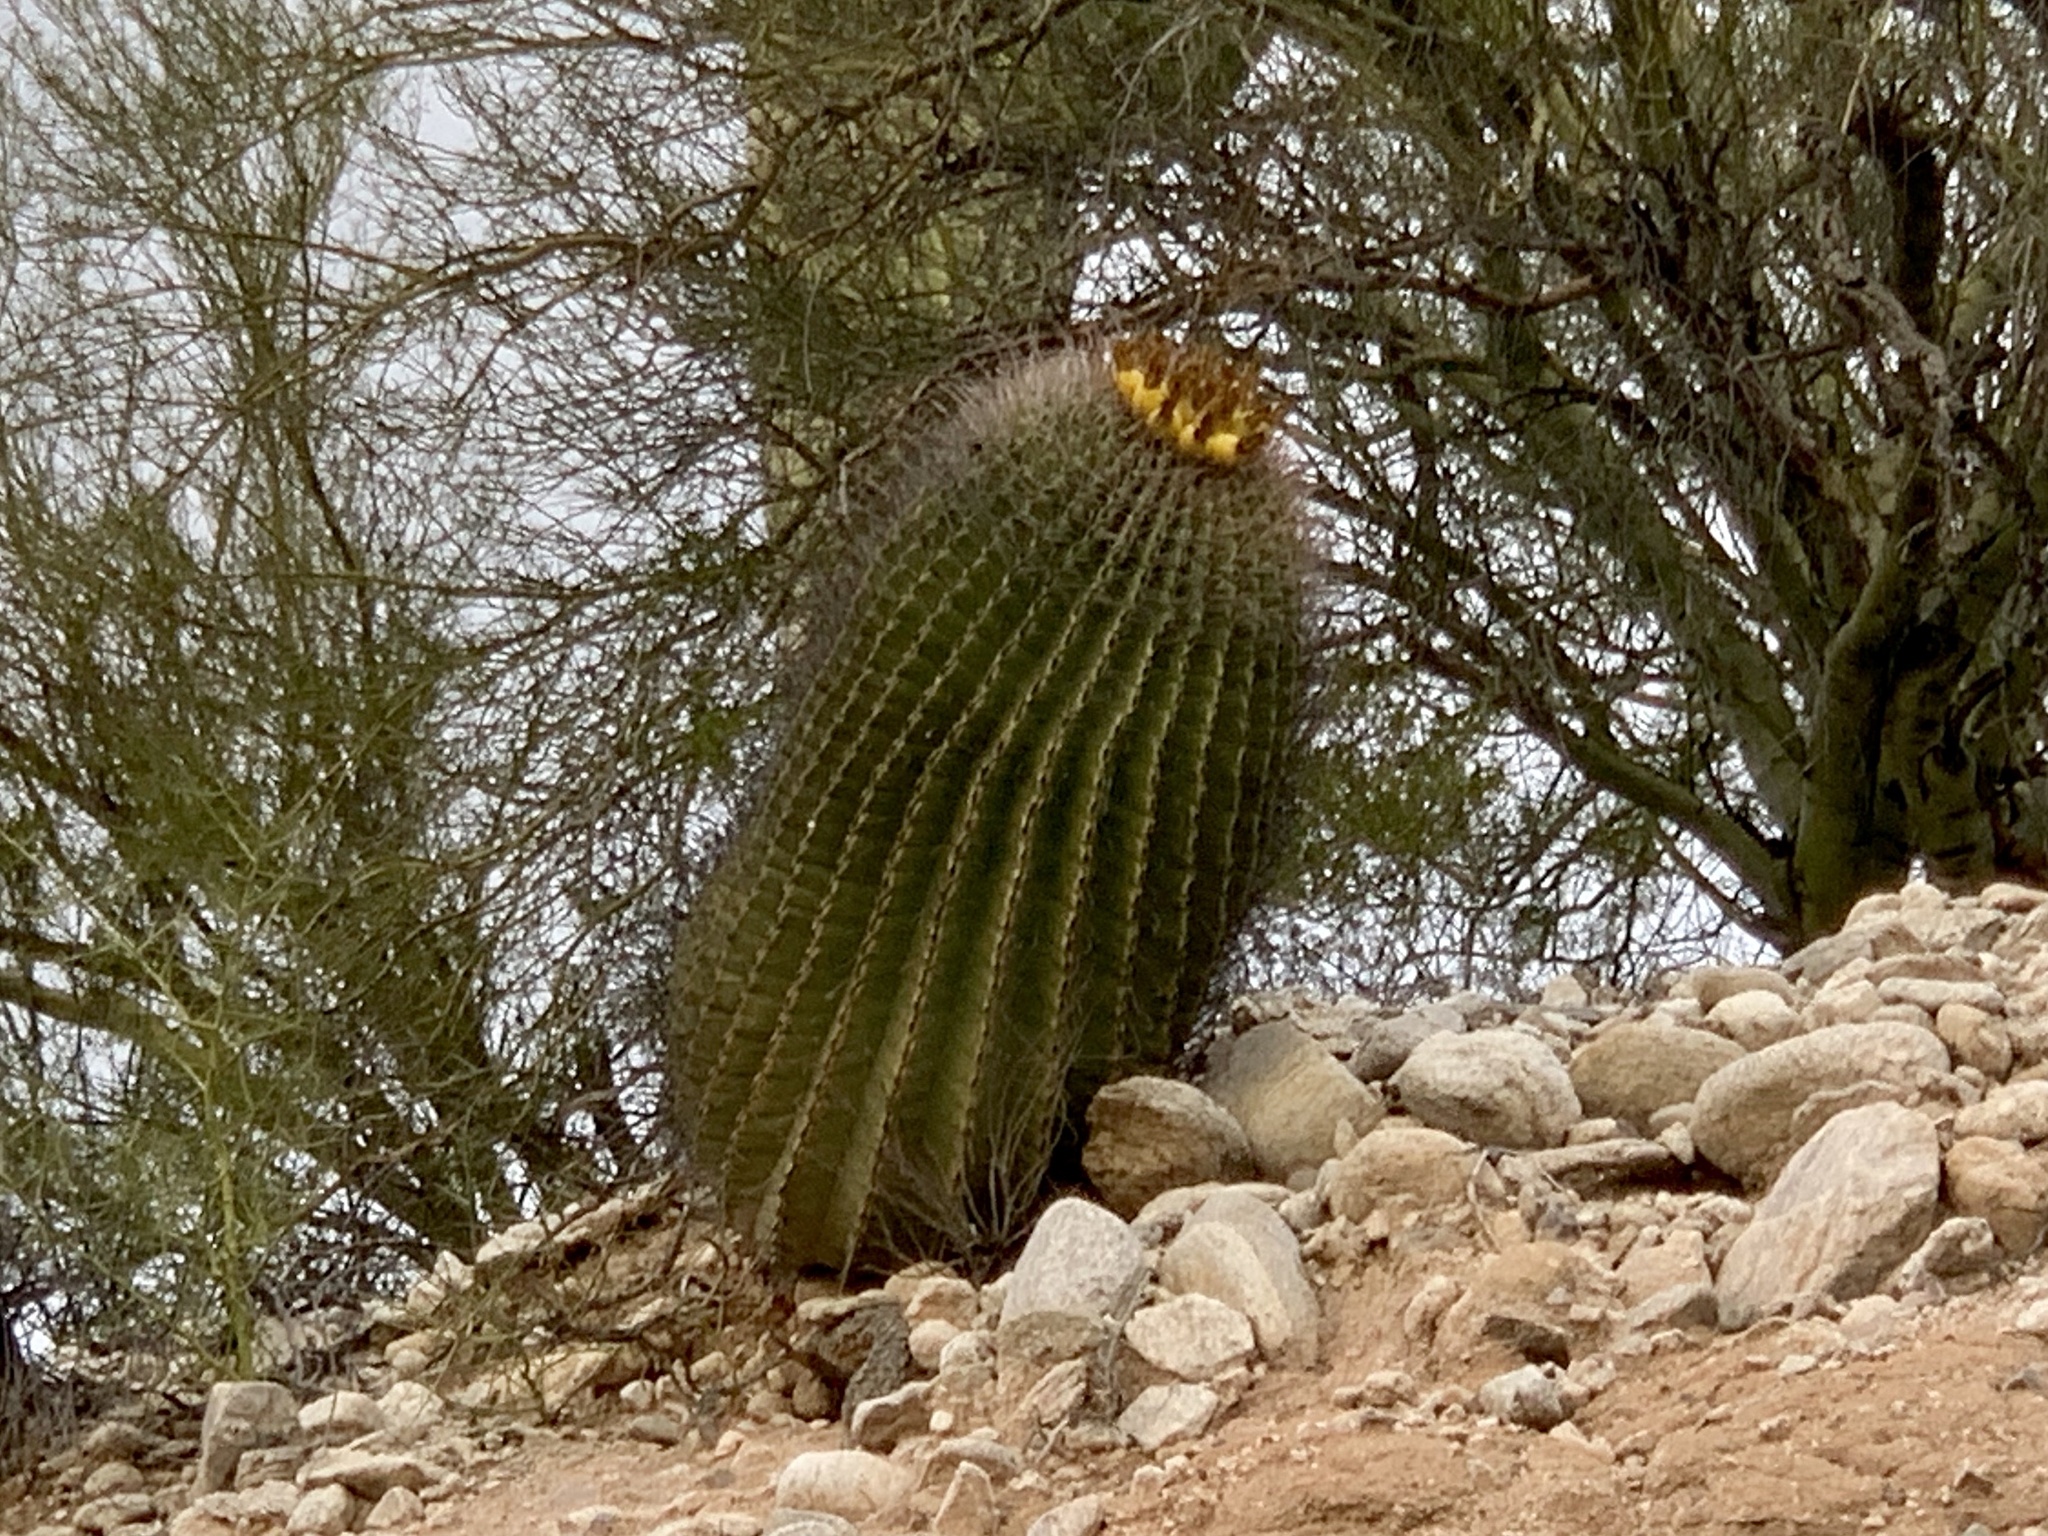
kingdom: Plantae
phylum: Tracheophyta
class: Magnoliopsida
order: Caryophyllales
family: Cactaceae
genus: Ferocactus
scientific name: Ferocactus wislizeni
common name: Candy barrel cactus
